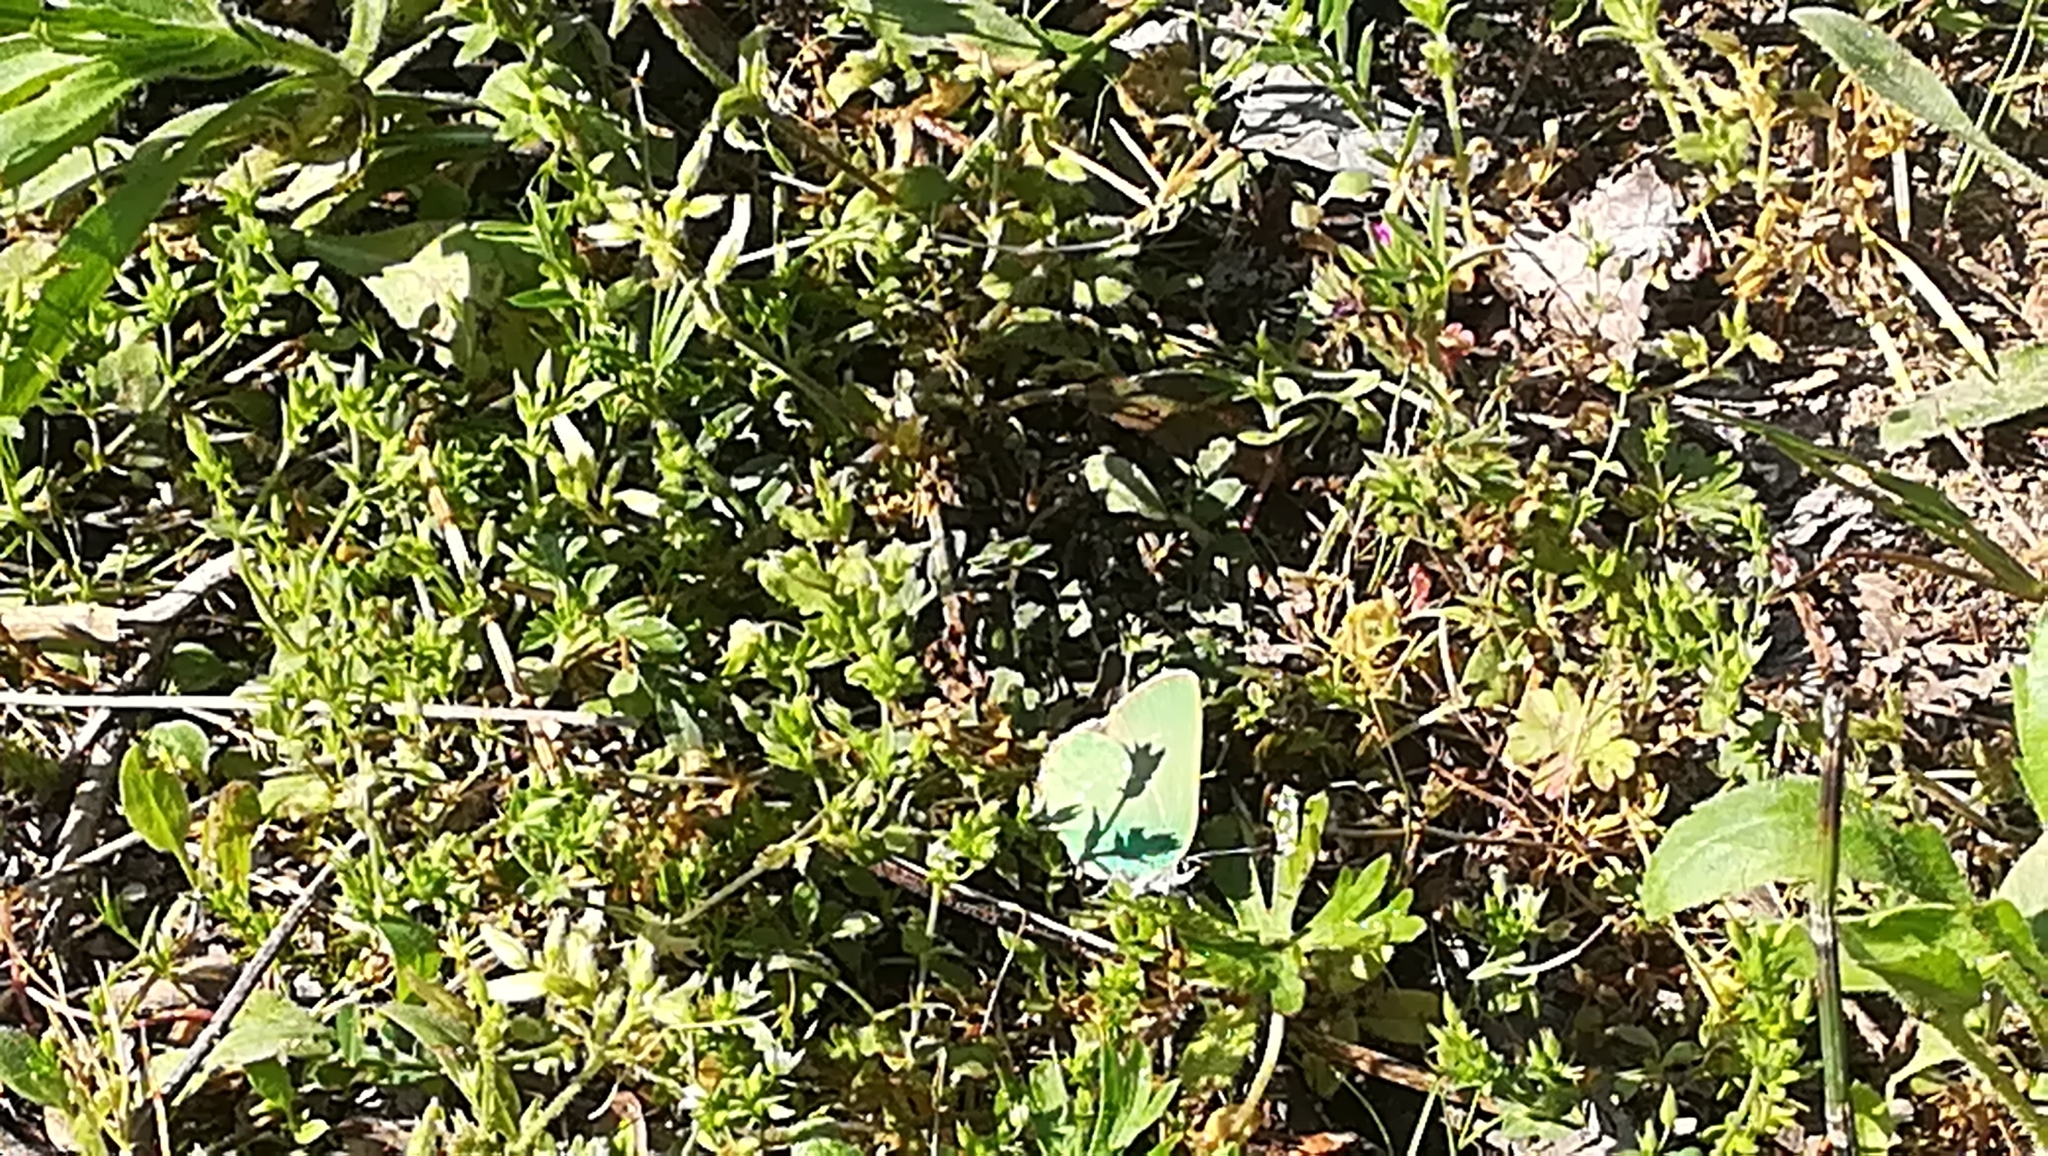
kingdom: Animalia
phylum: Arthropoda
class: Insecta
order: Lepidoptera
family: Lycaenidae
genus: Callophrys
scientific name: Callophrys rubi
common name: Green hairstreak
